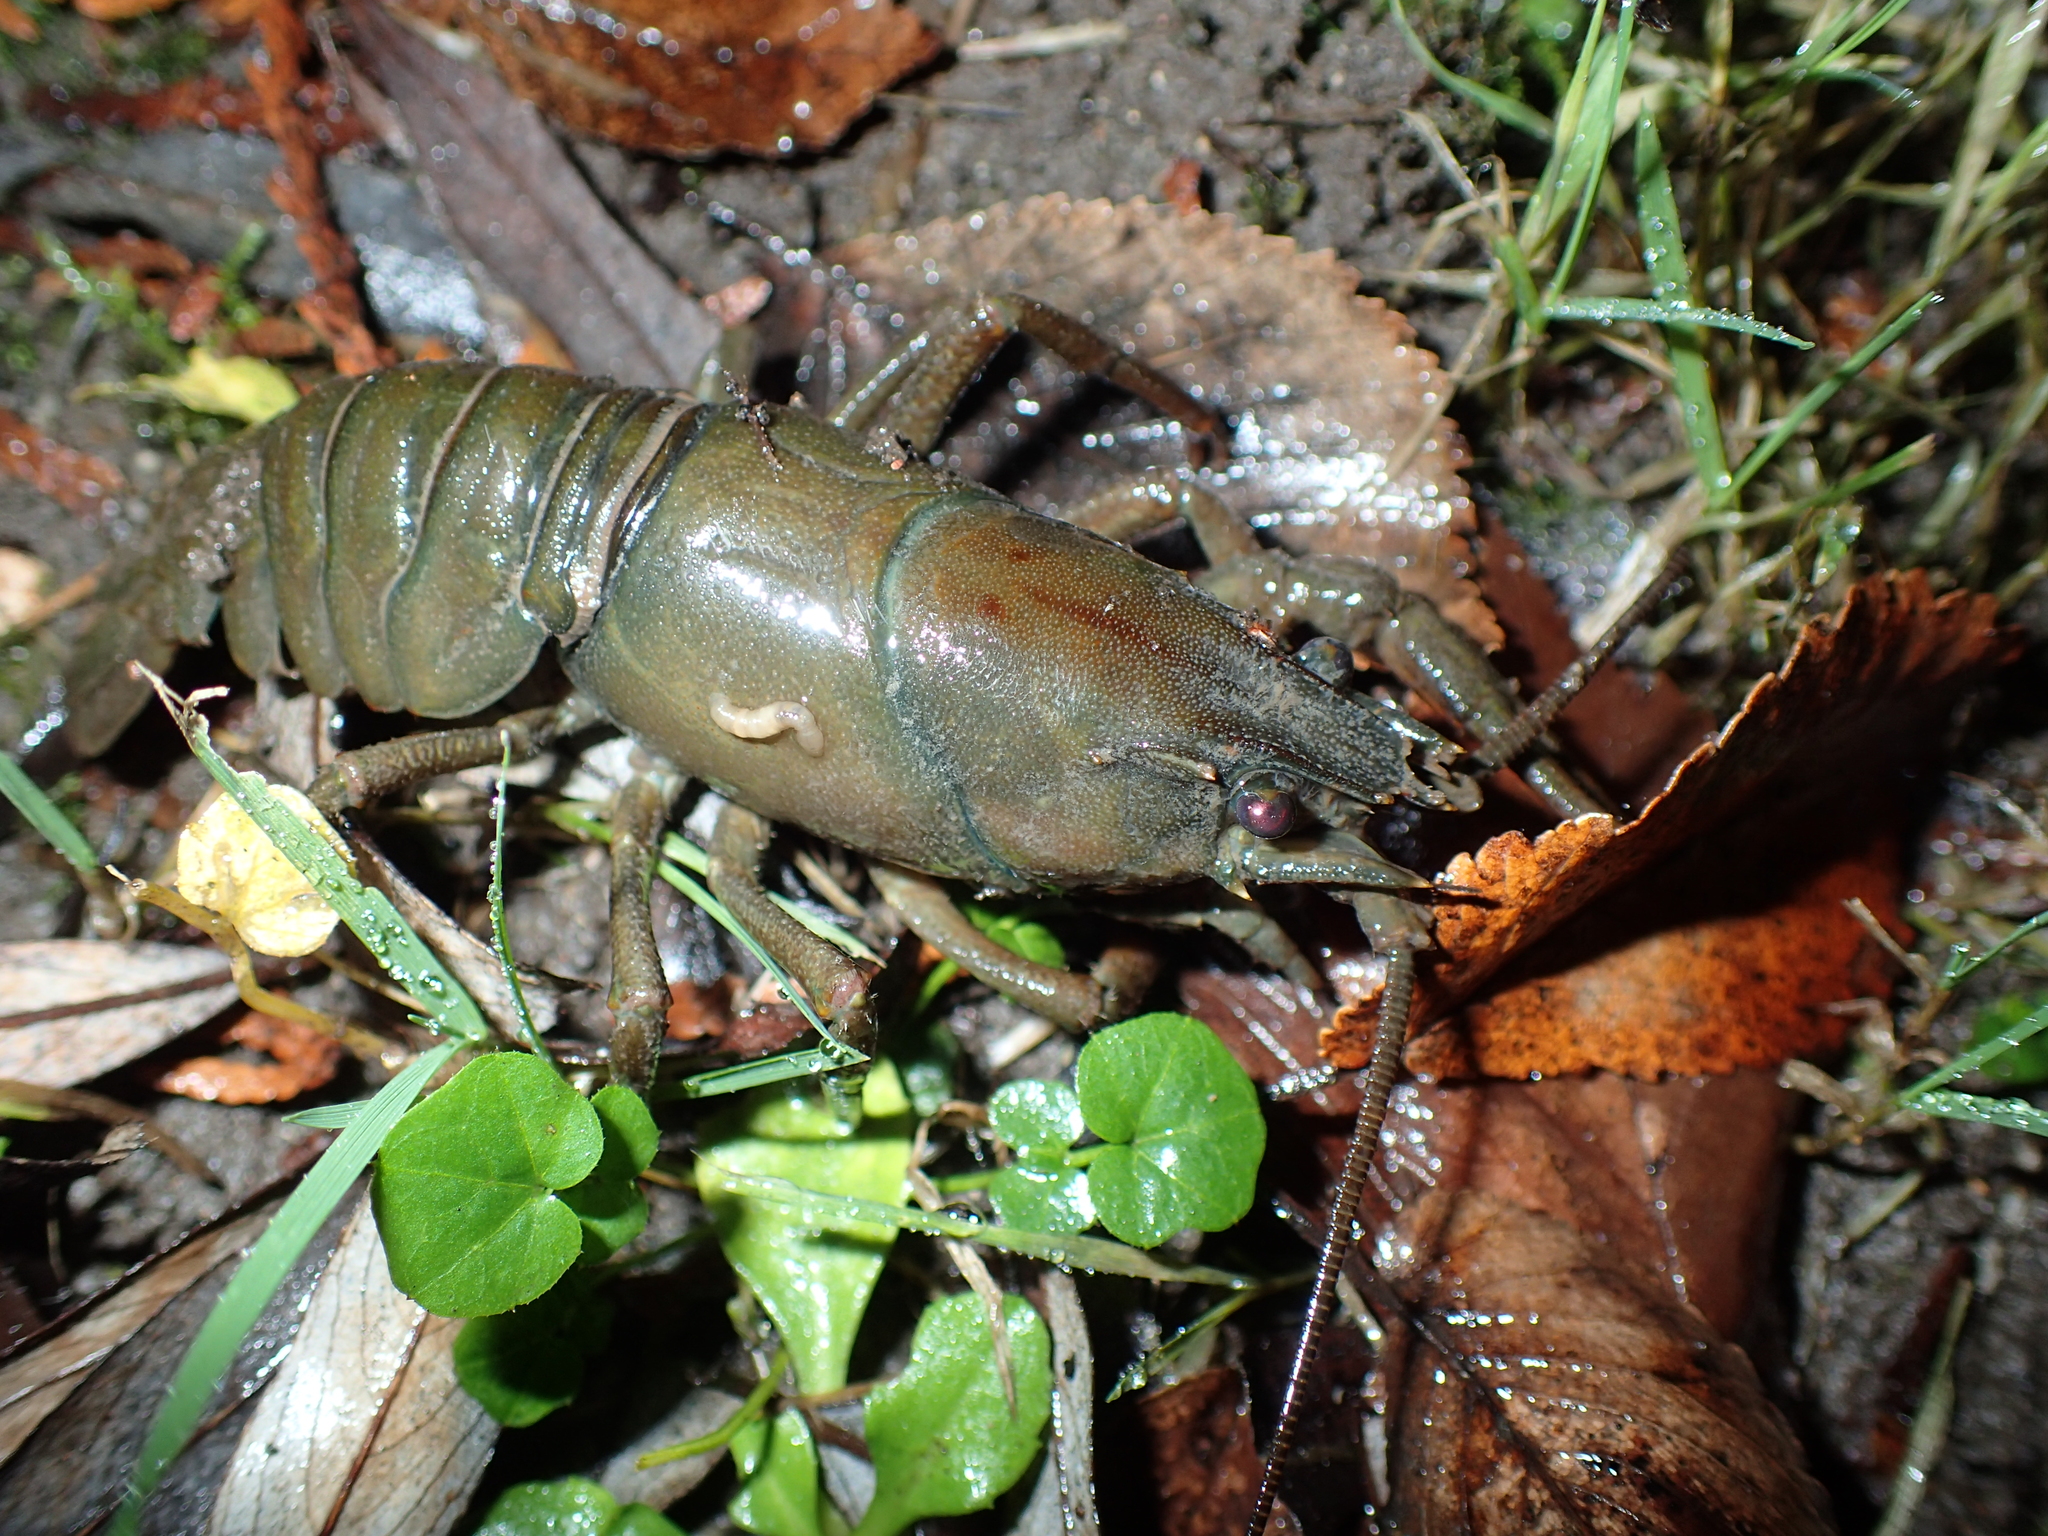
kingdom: Animalia
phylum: Arthropoda
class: Malacostraca
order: Decapoda
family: Astacidae
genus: Pacifastacus
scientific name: Pacifastacus leniusculus
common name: Signal crayfish
